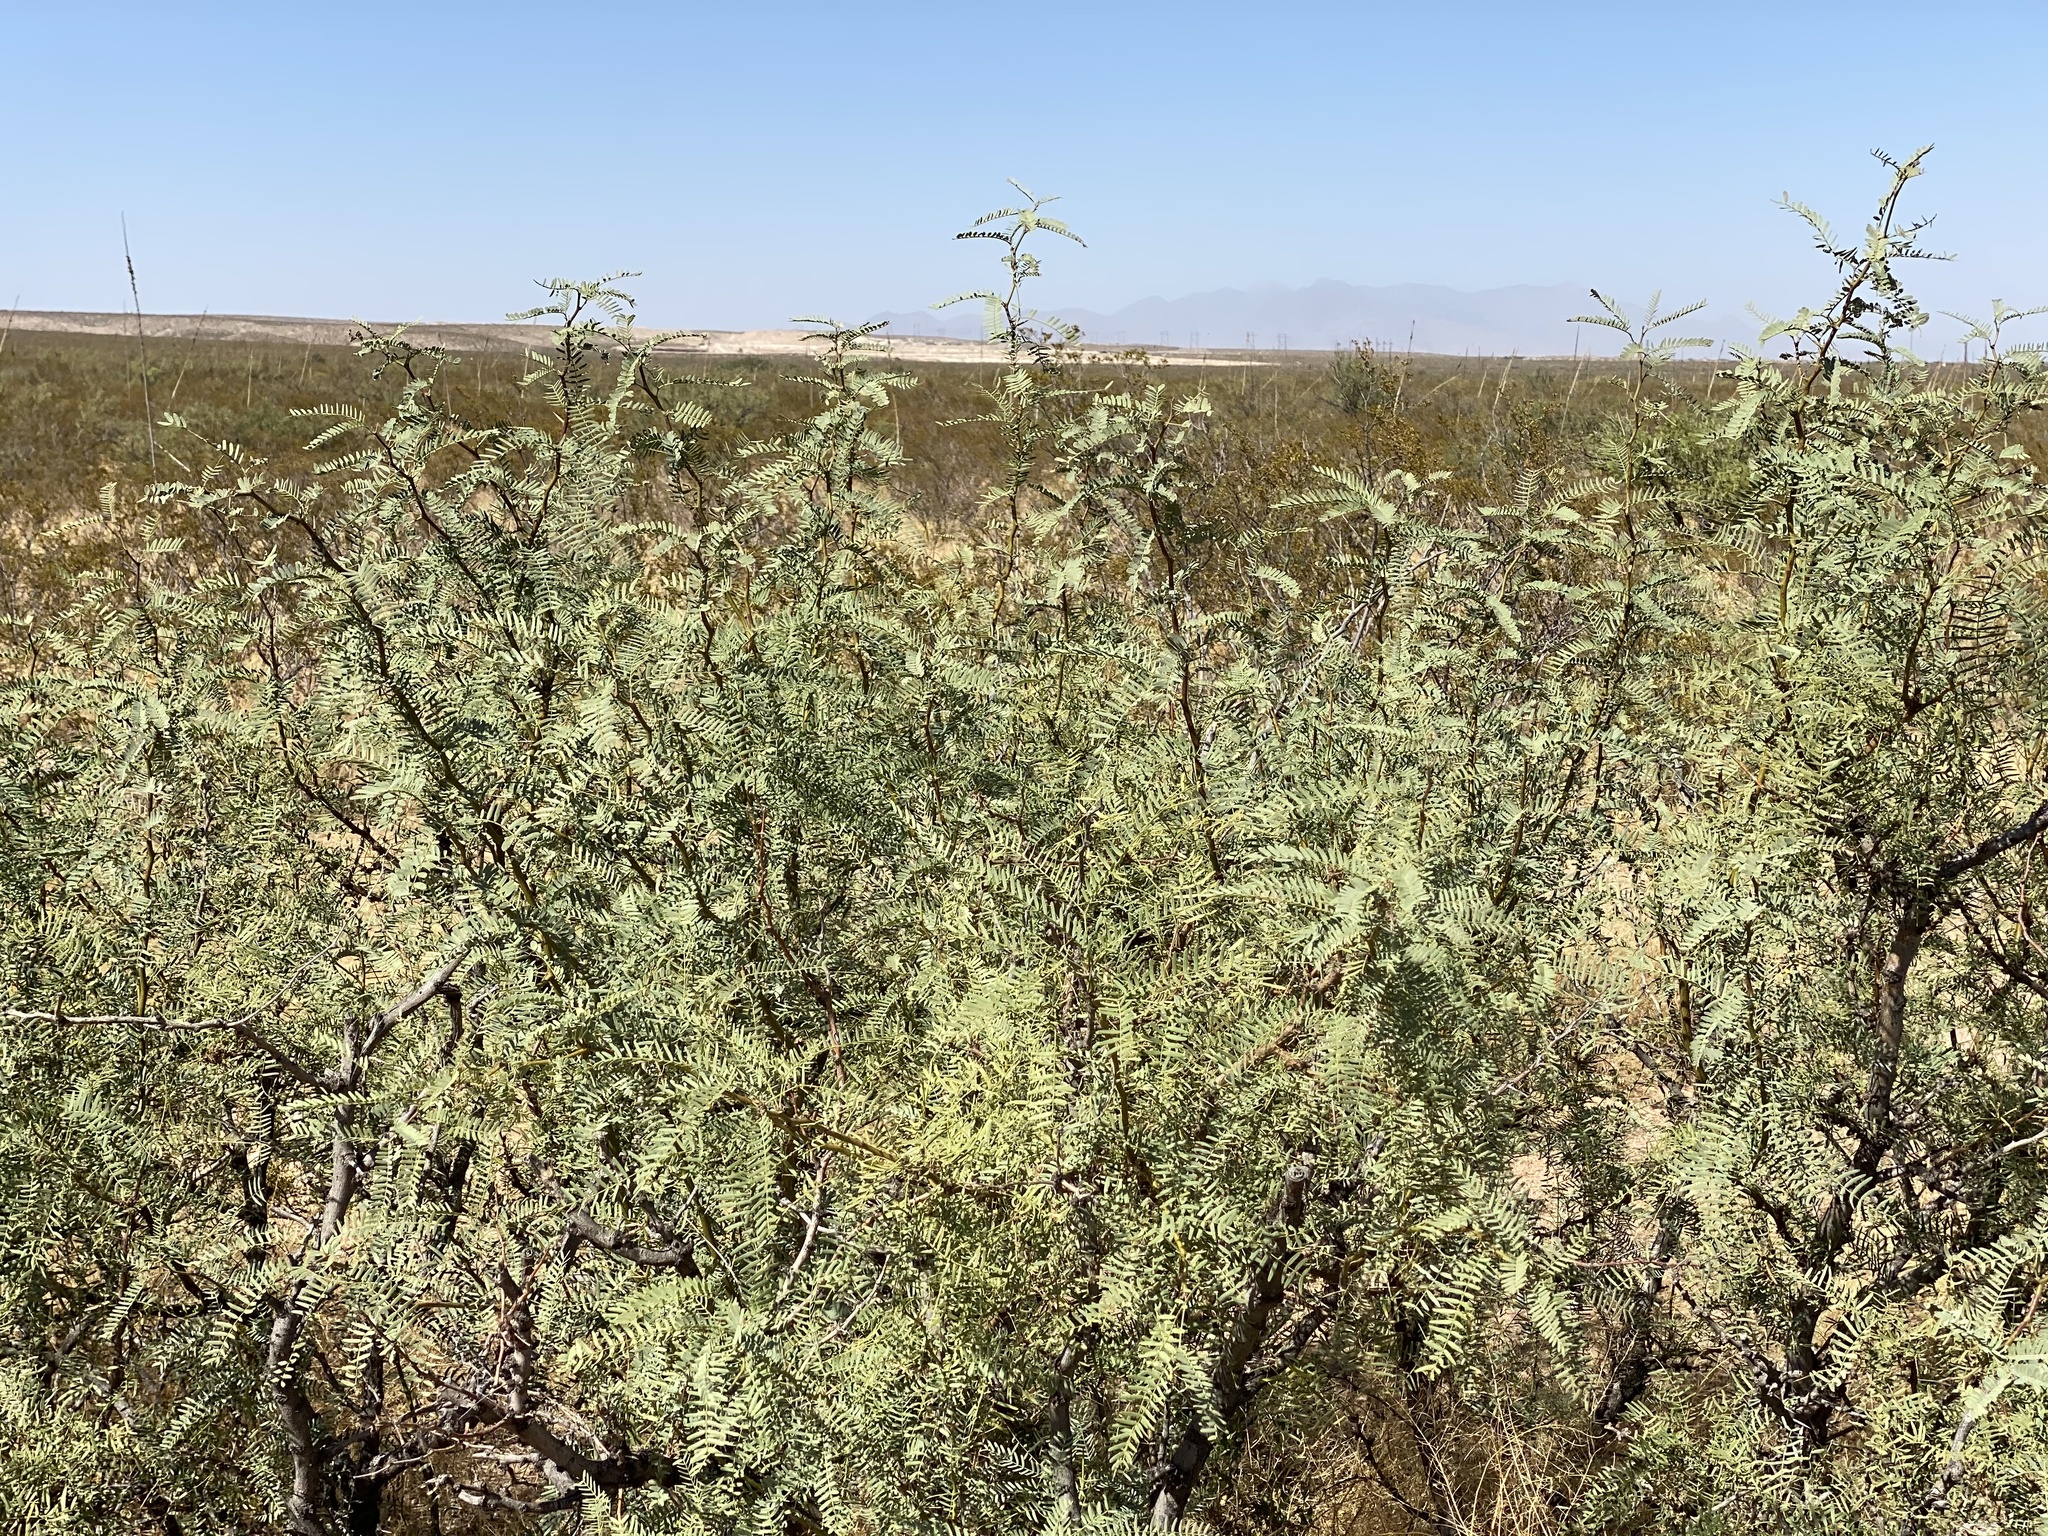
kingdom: Plantae
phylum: Tracheophyta
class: Magnoliopsida
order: Fabales
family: Fabaceae
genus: Prosopis
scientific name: Prosopis glandulosa
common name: Honey mesquite
